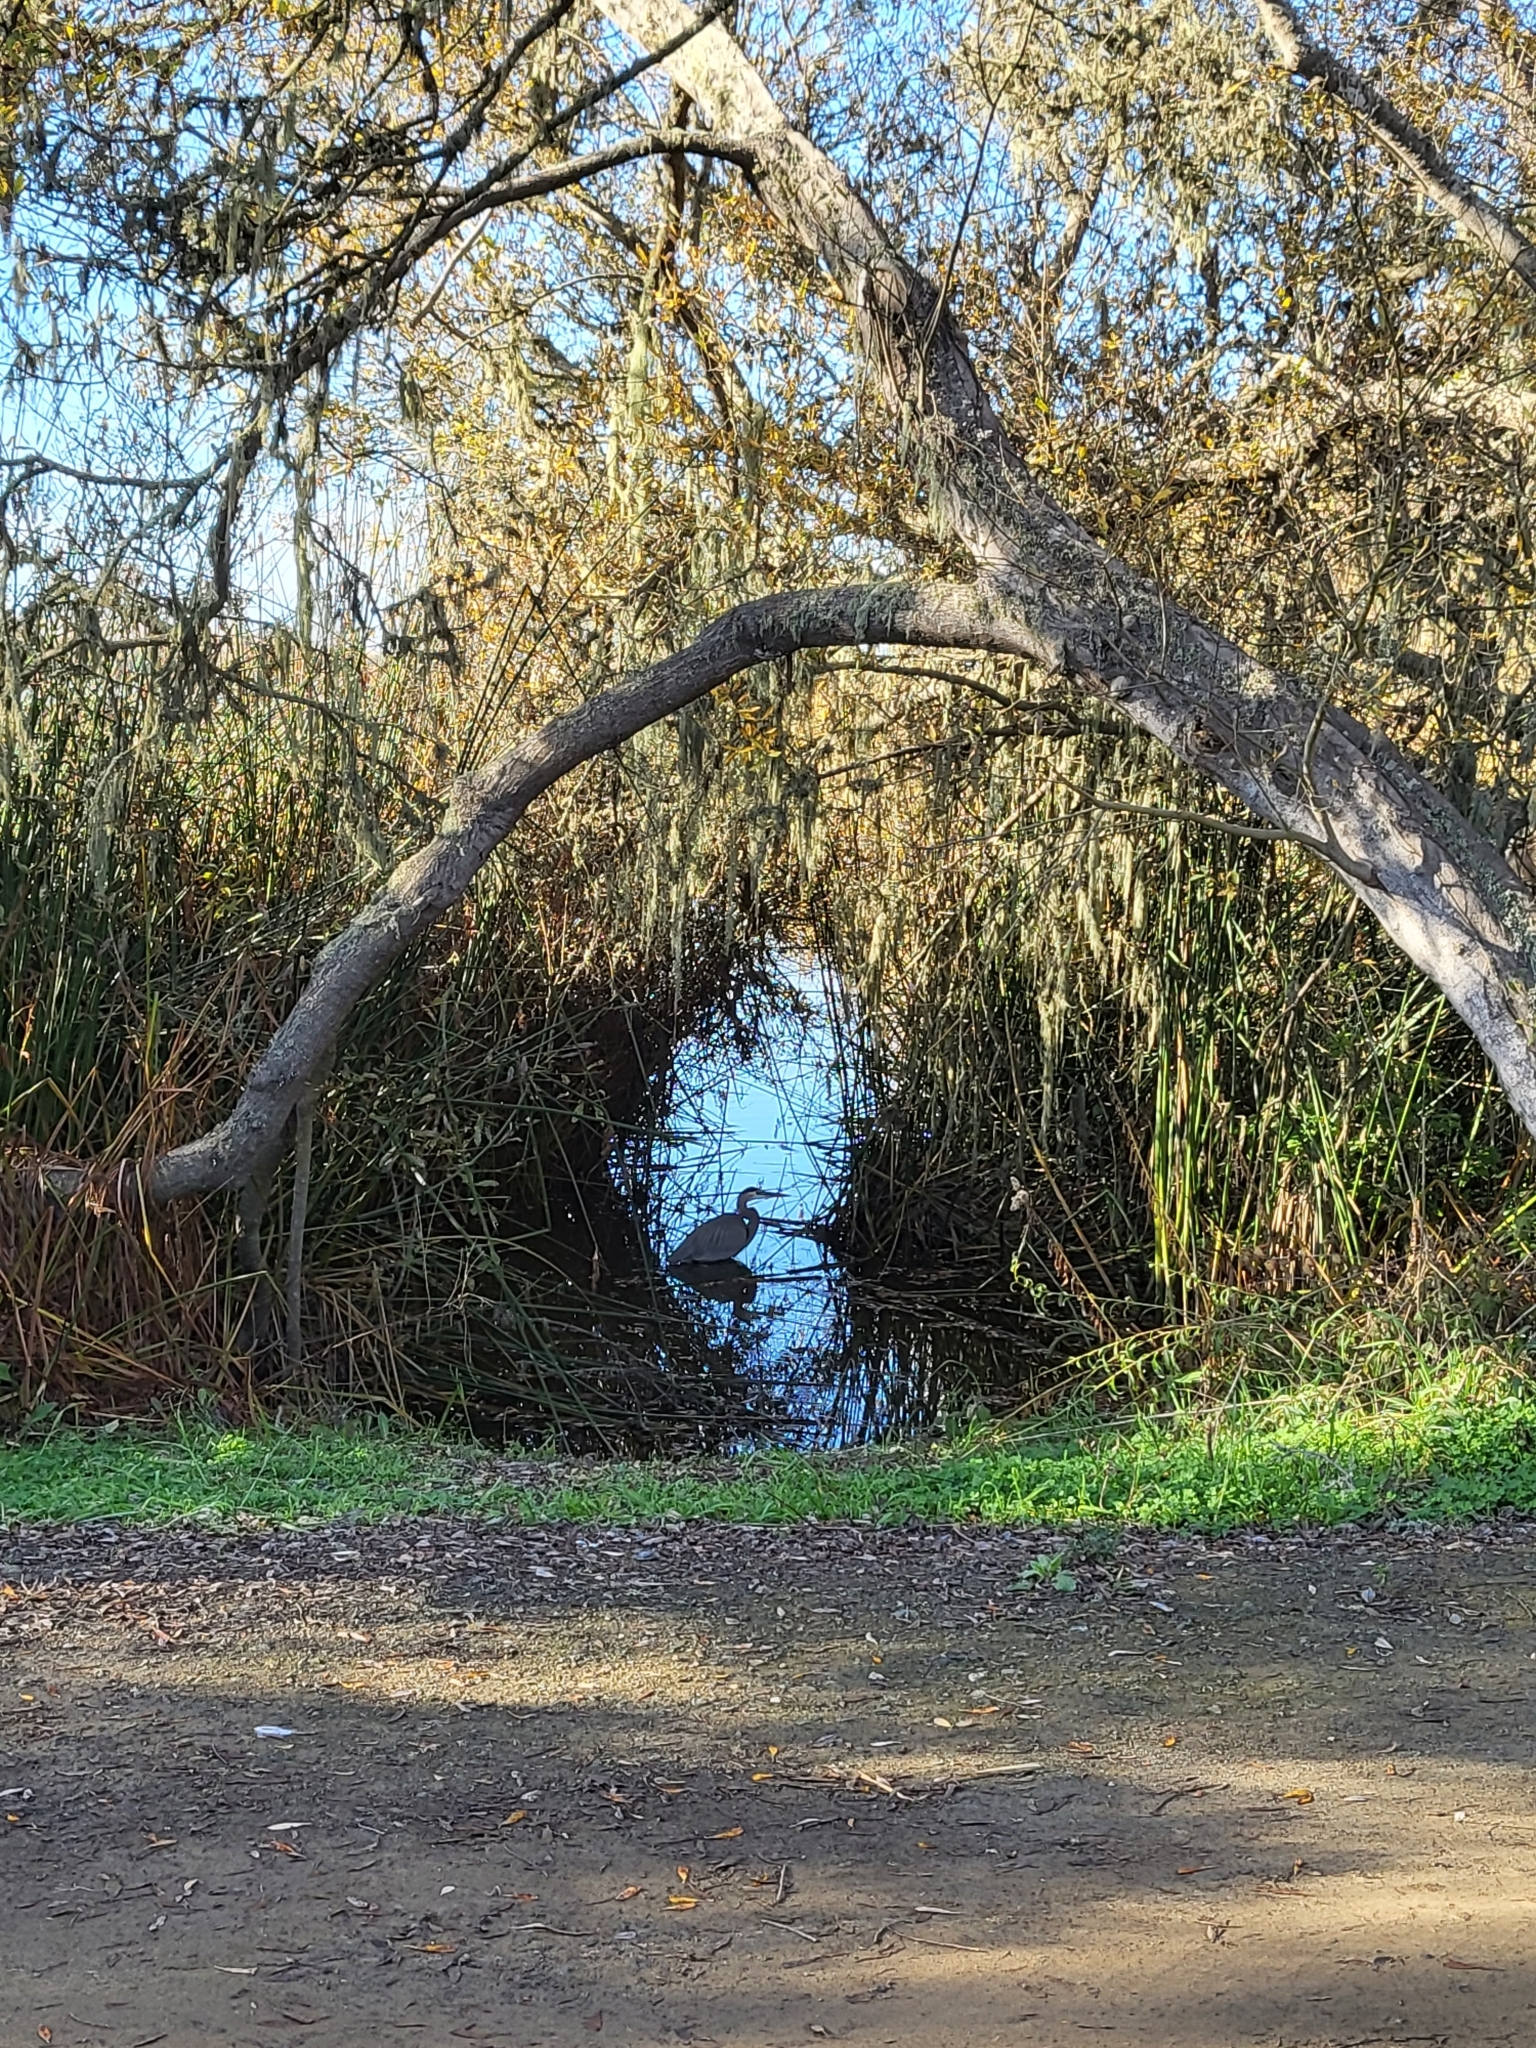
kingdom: Animalia
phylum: Chordata
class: Aves
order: Pelecaniformes
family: Ardeidae
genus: Ardea
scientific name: Ardea herodias
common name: Great blue heron
